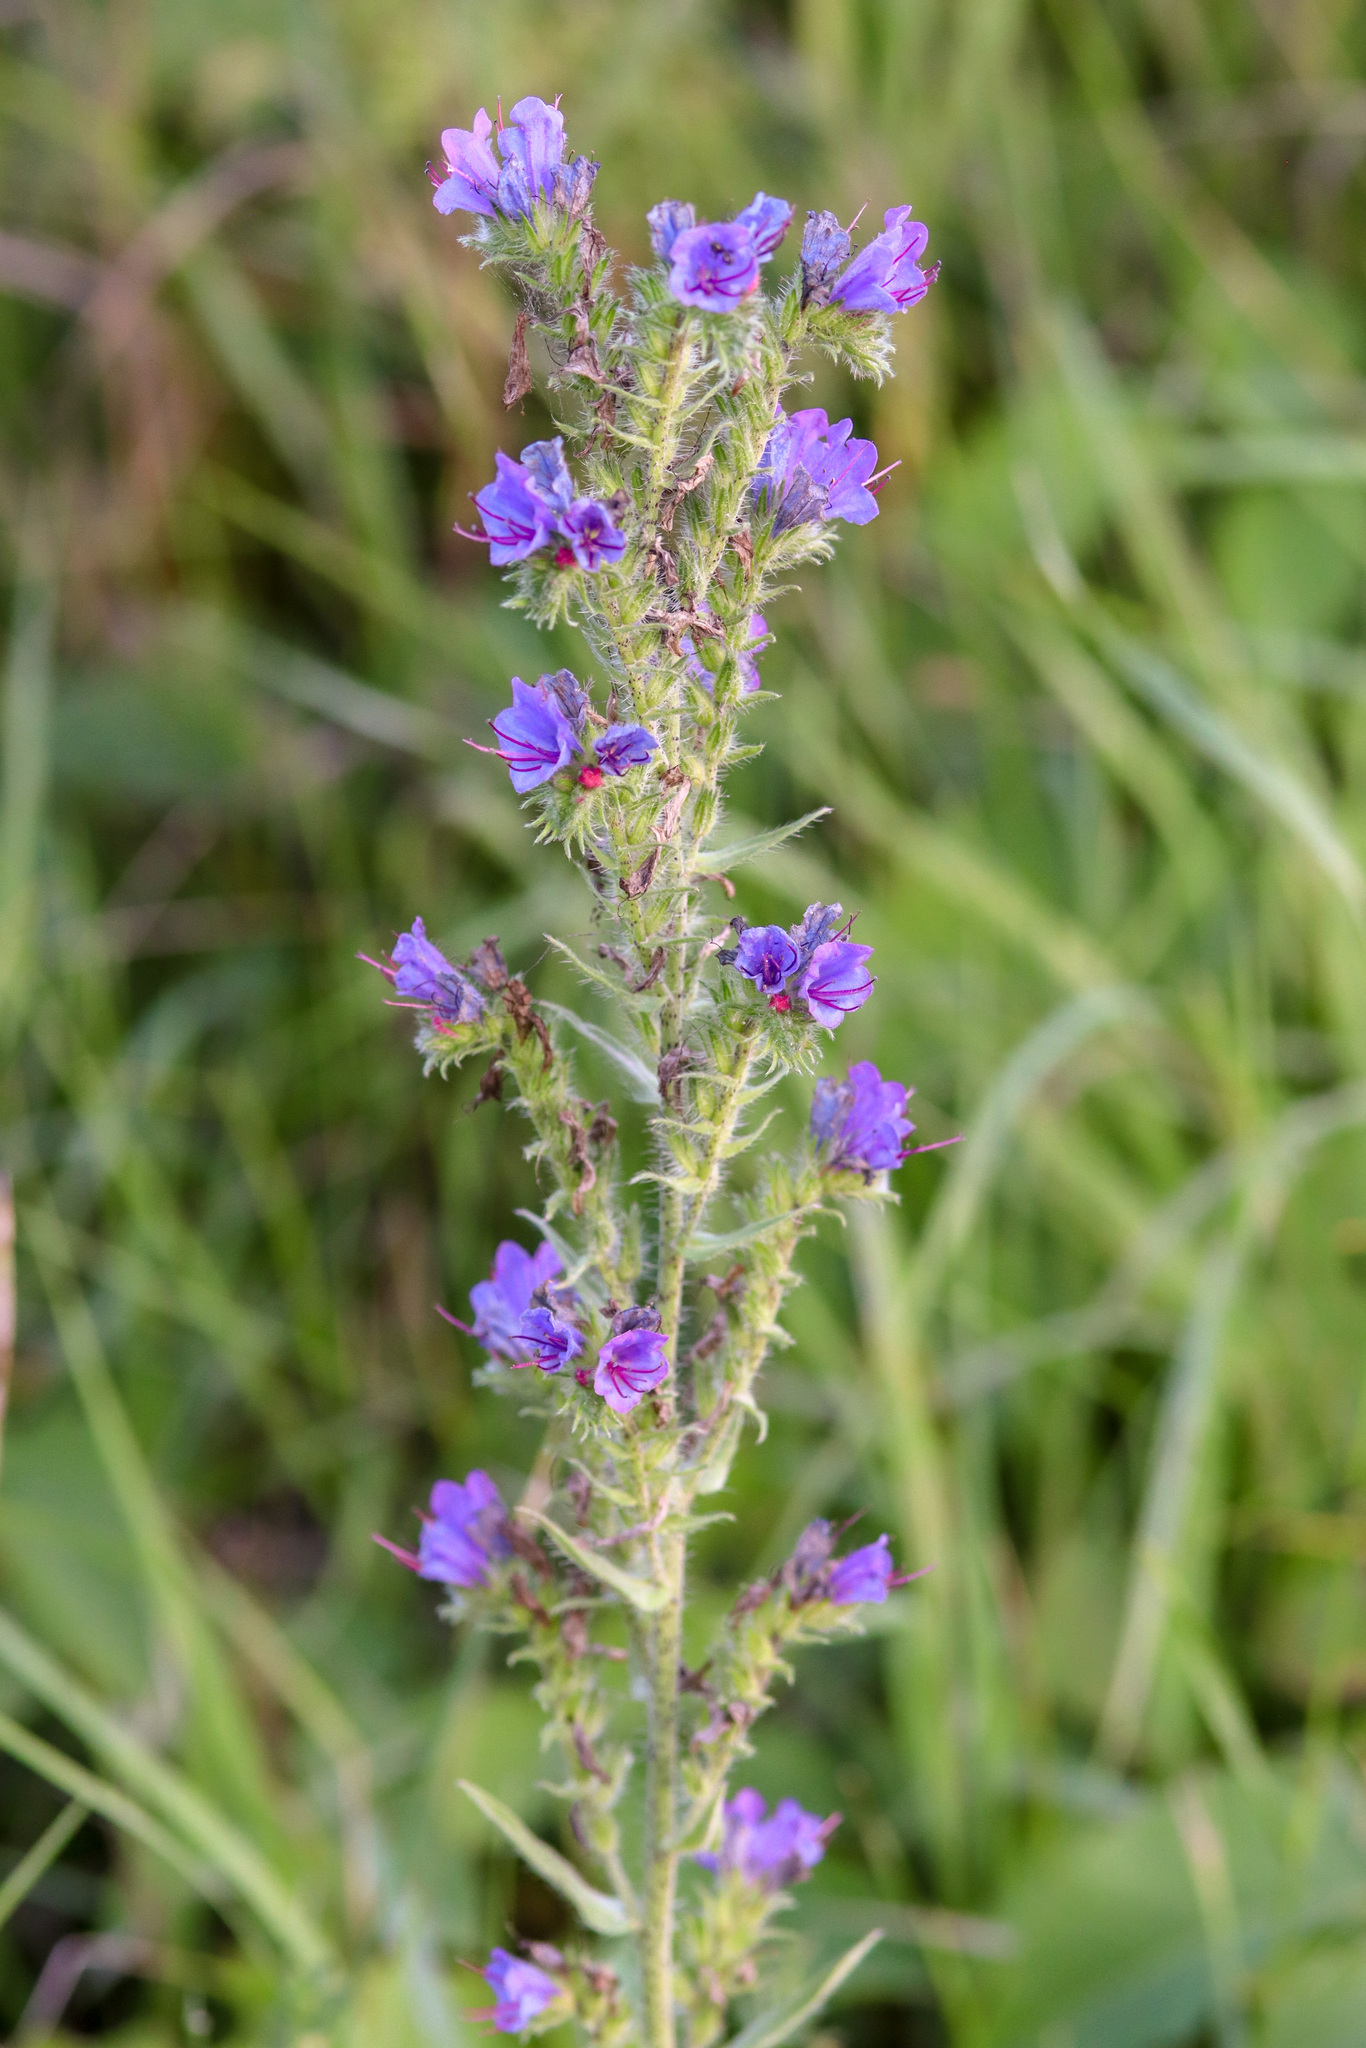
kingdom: Plantae
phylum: Tracheophyta
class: Magnoliopsida
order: Boraginales
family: Boraginaceae
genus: Echium
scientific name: Echium vulgare
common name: Common viper's bugloss
